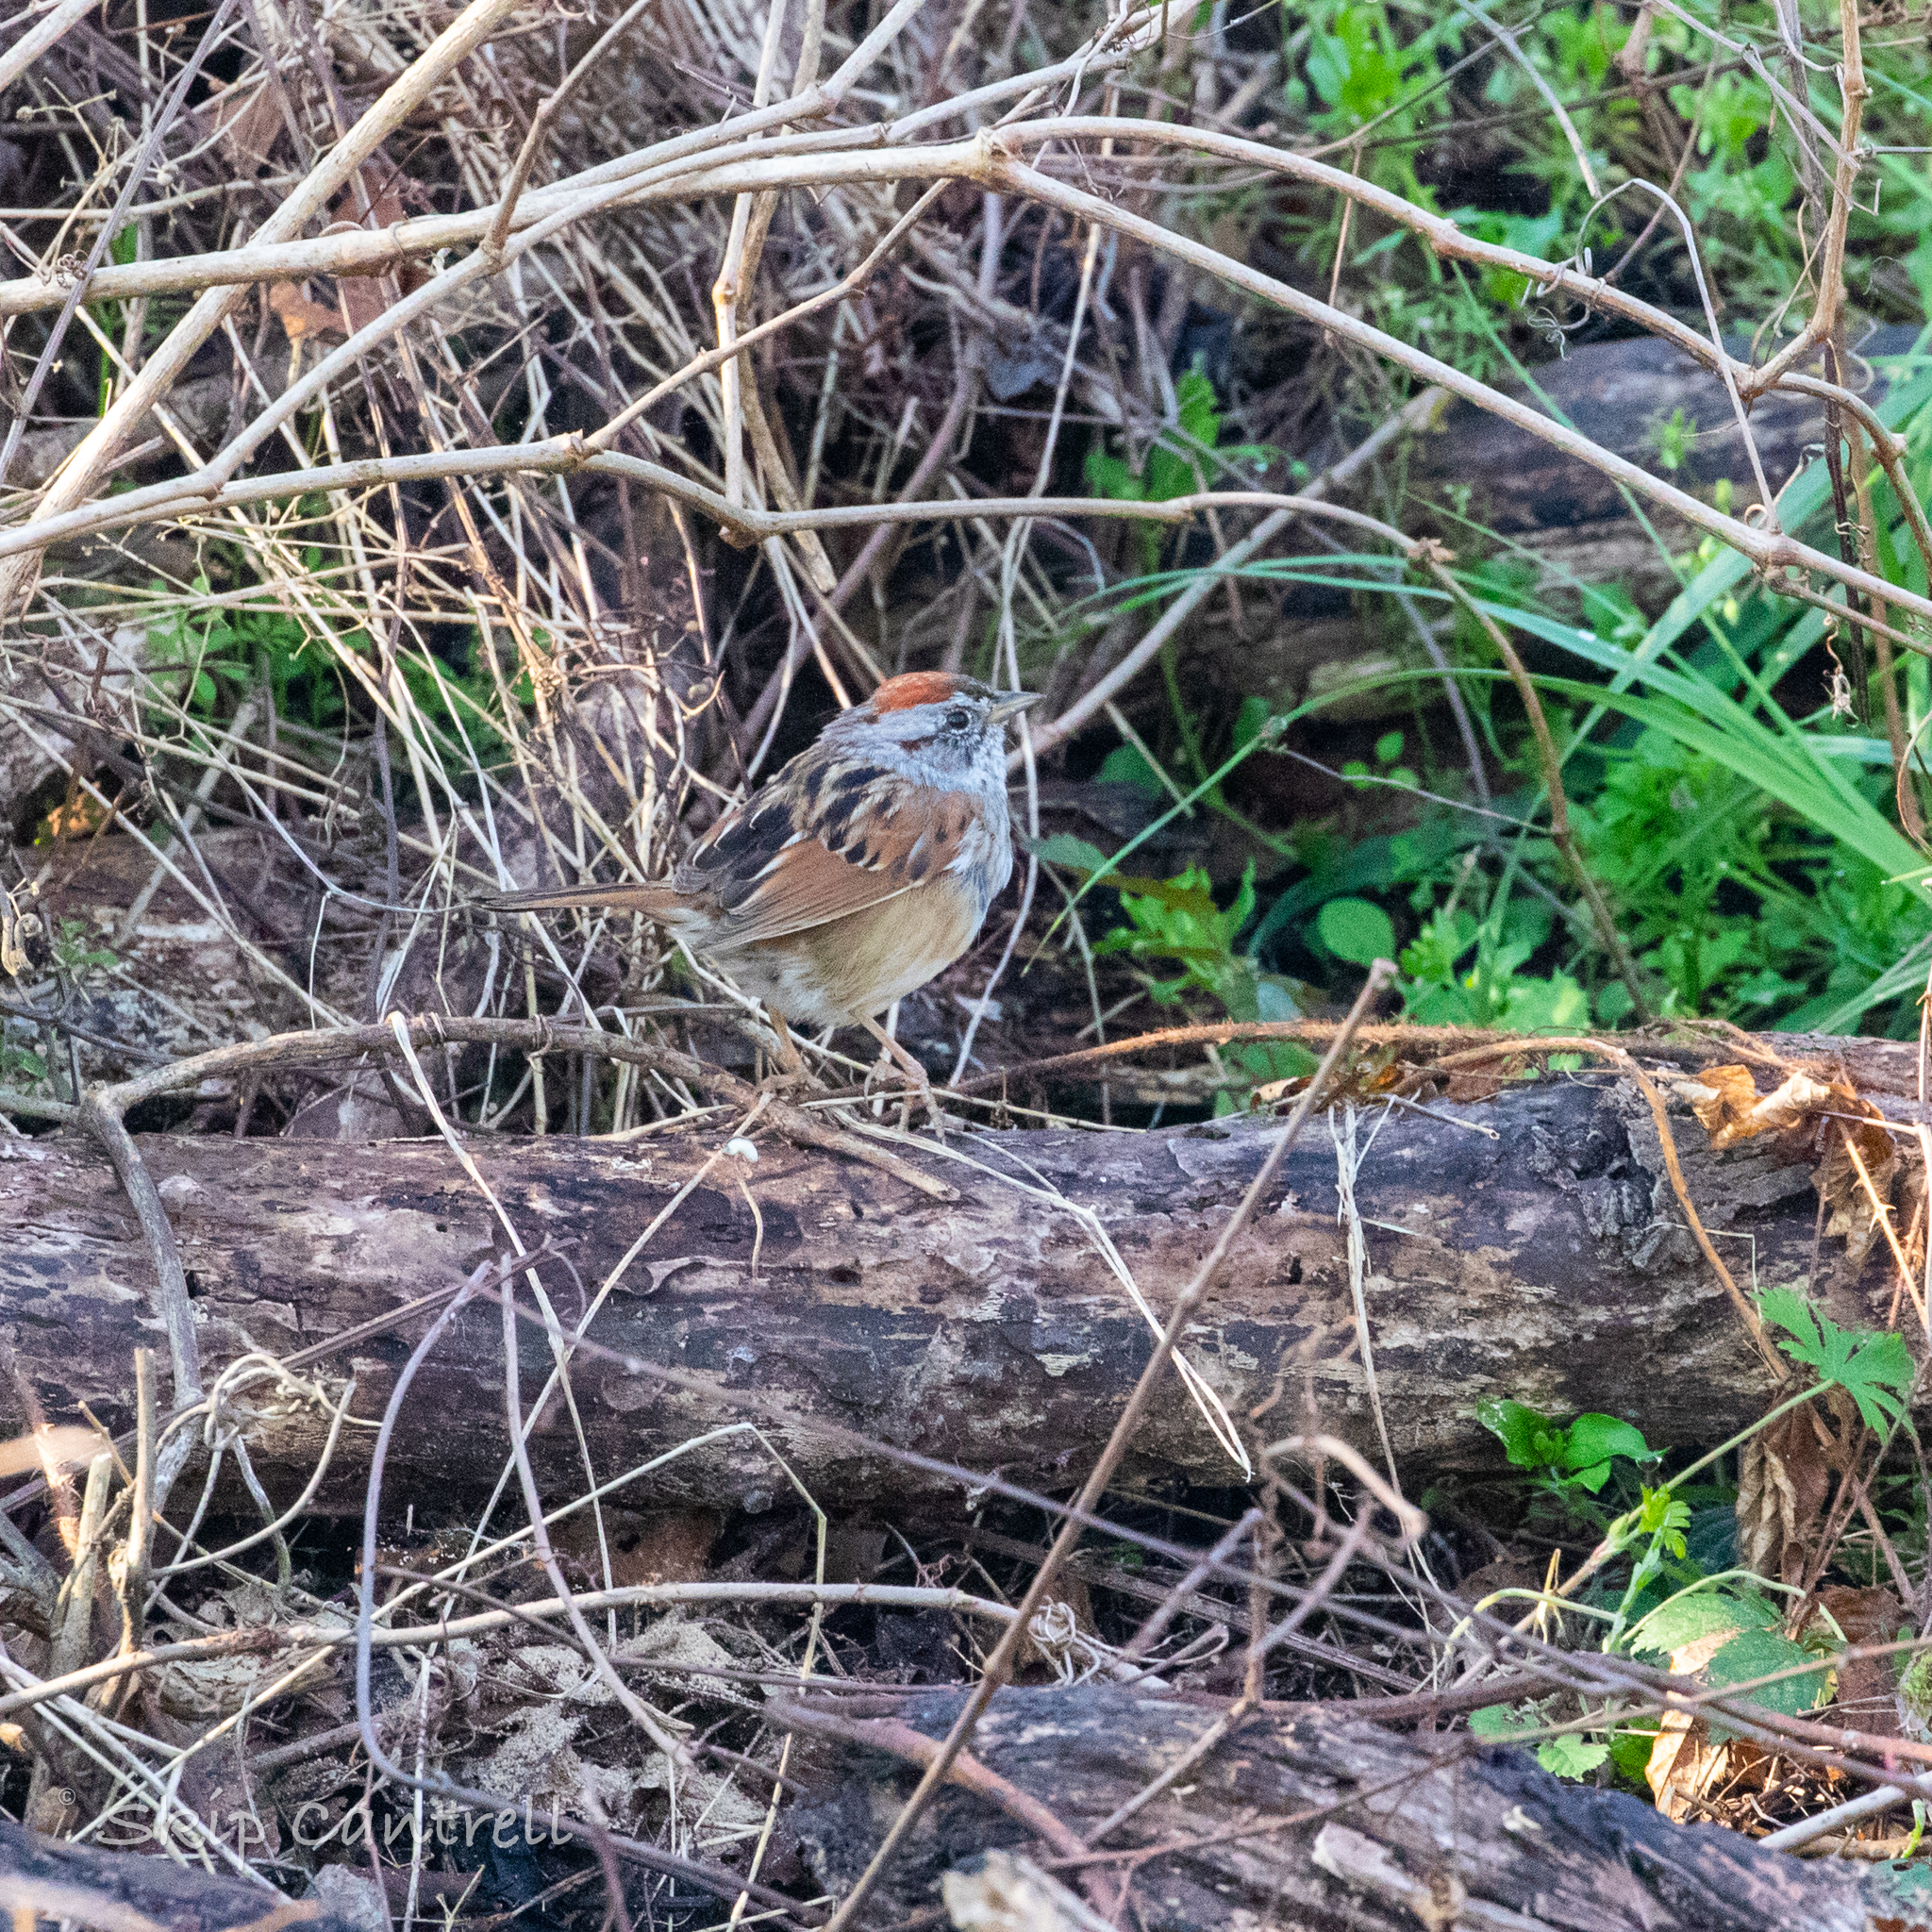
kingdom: Animalia
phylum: Chordata
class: Aves
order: Passeriformes
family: Passerellidae
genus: Melospiza
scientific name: Melospiza georgiana
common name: Swamp sparrow
